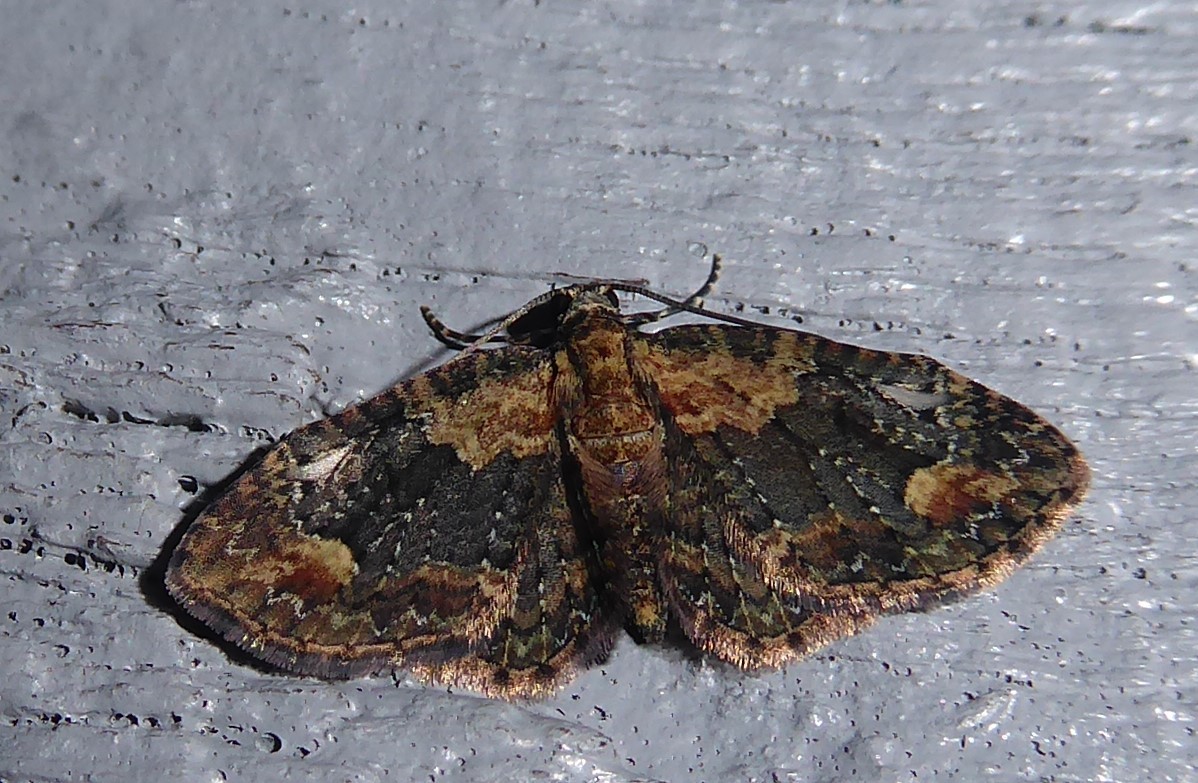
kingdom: Animalia
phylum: Arthropoda
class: Insecta
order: Lepidoptera
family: Geometridae
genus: Pasiphilodes
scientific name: Pasiphilodes testulata
